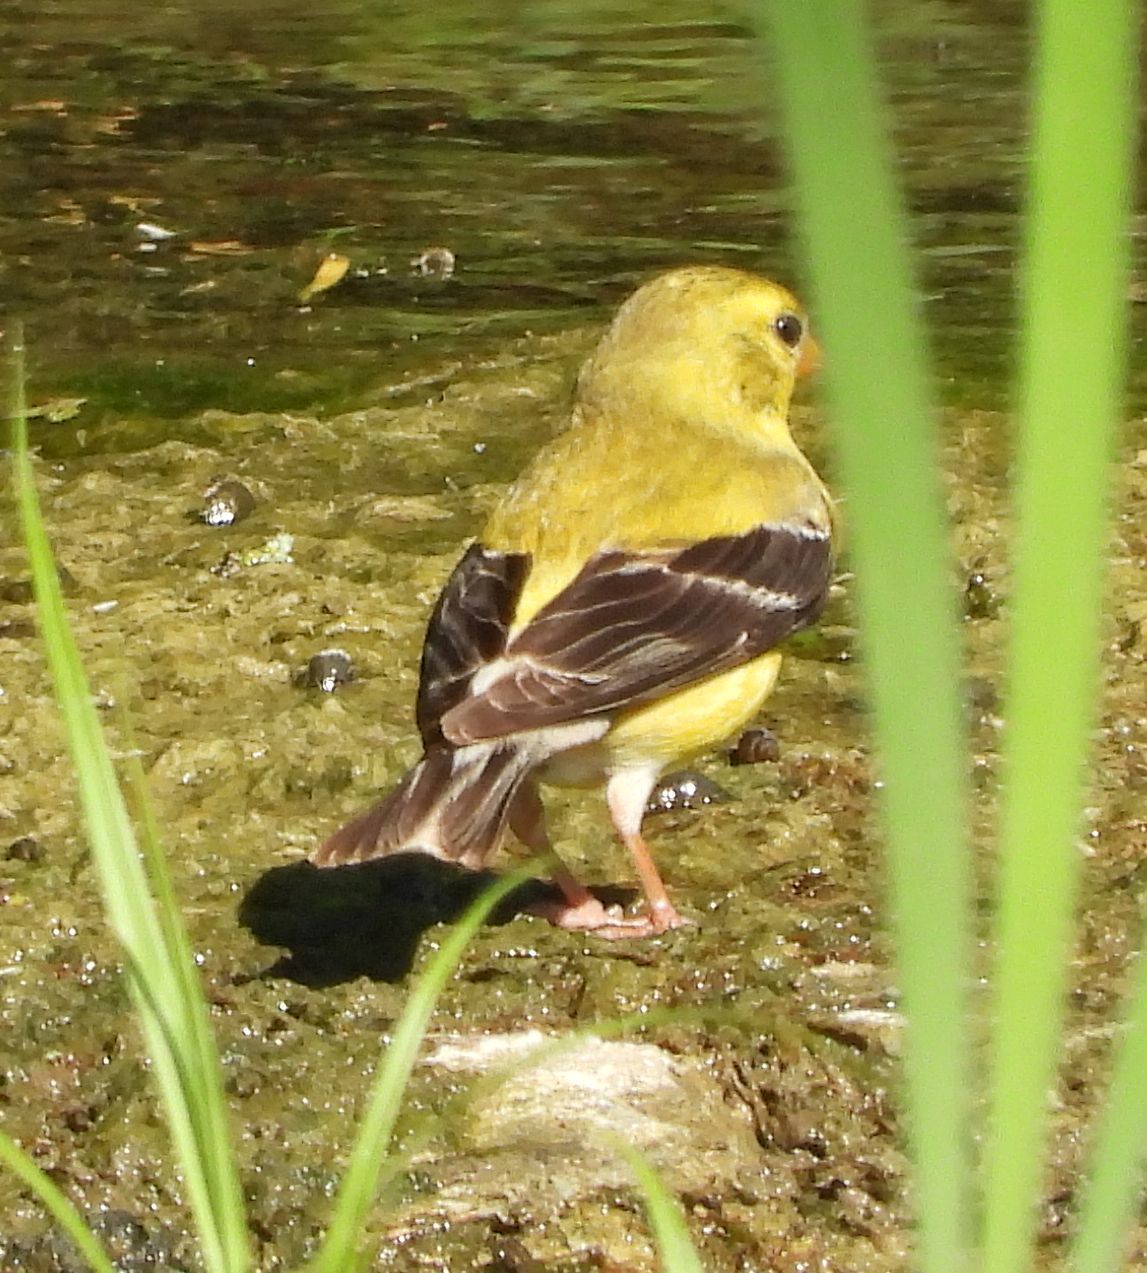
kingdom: Animalia
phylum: Chordata
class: Aves
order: Passeriformes
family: Fringillidae
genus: Spinus
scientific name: Spinus tristis
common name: American goldfinch
